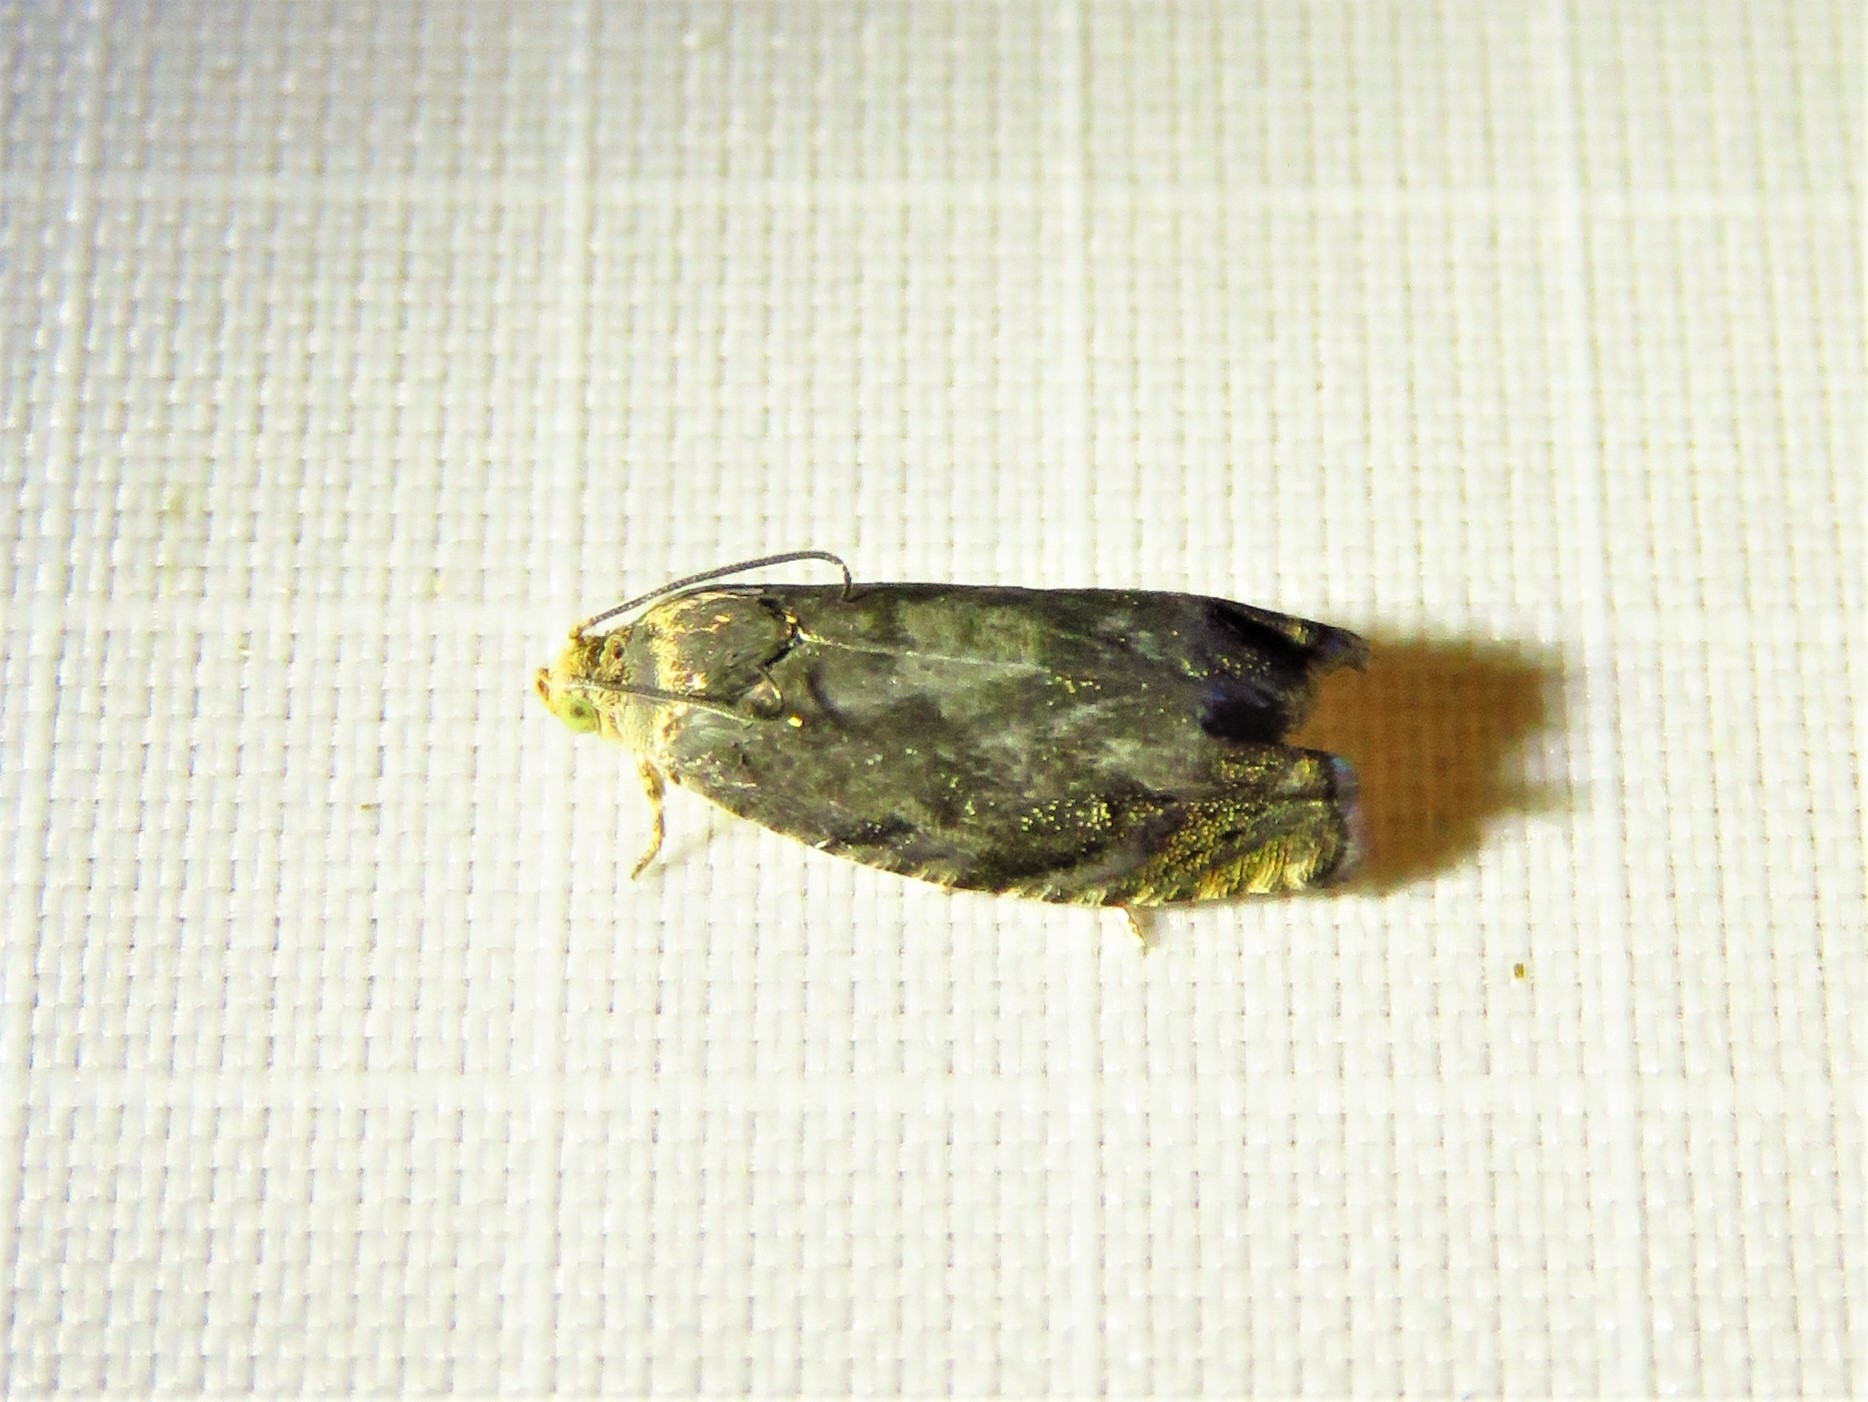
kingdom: Animalia
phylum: Arthropoda
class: Insecta
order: Lepidoptera
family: Tortricidae
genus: Cydia
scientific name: Cydia caryana
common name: Hickory shuckworm moth
